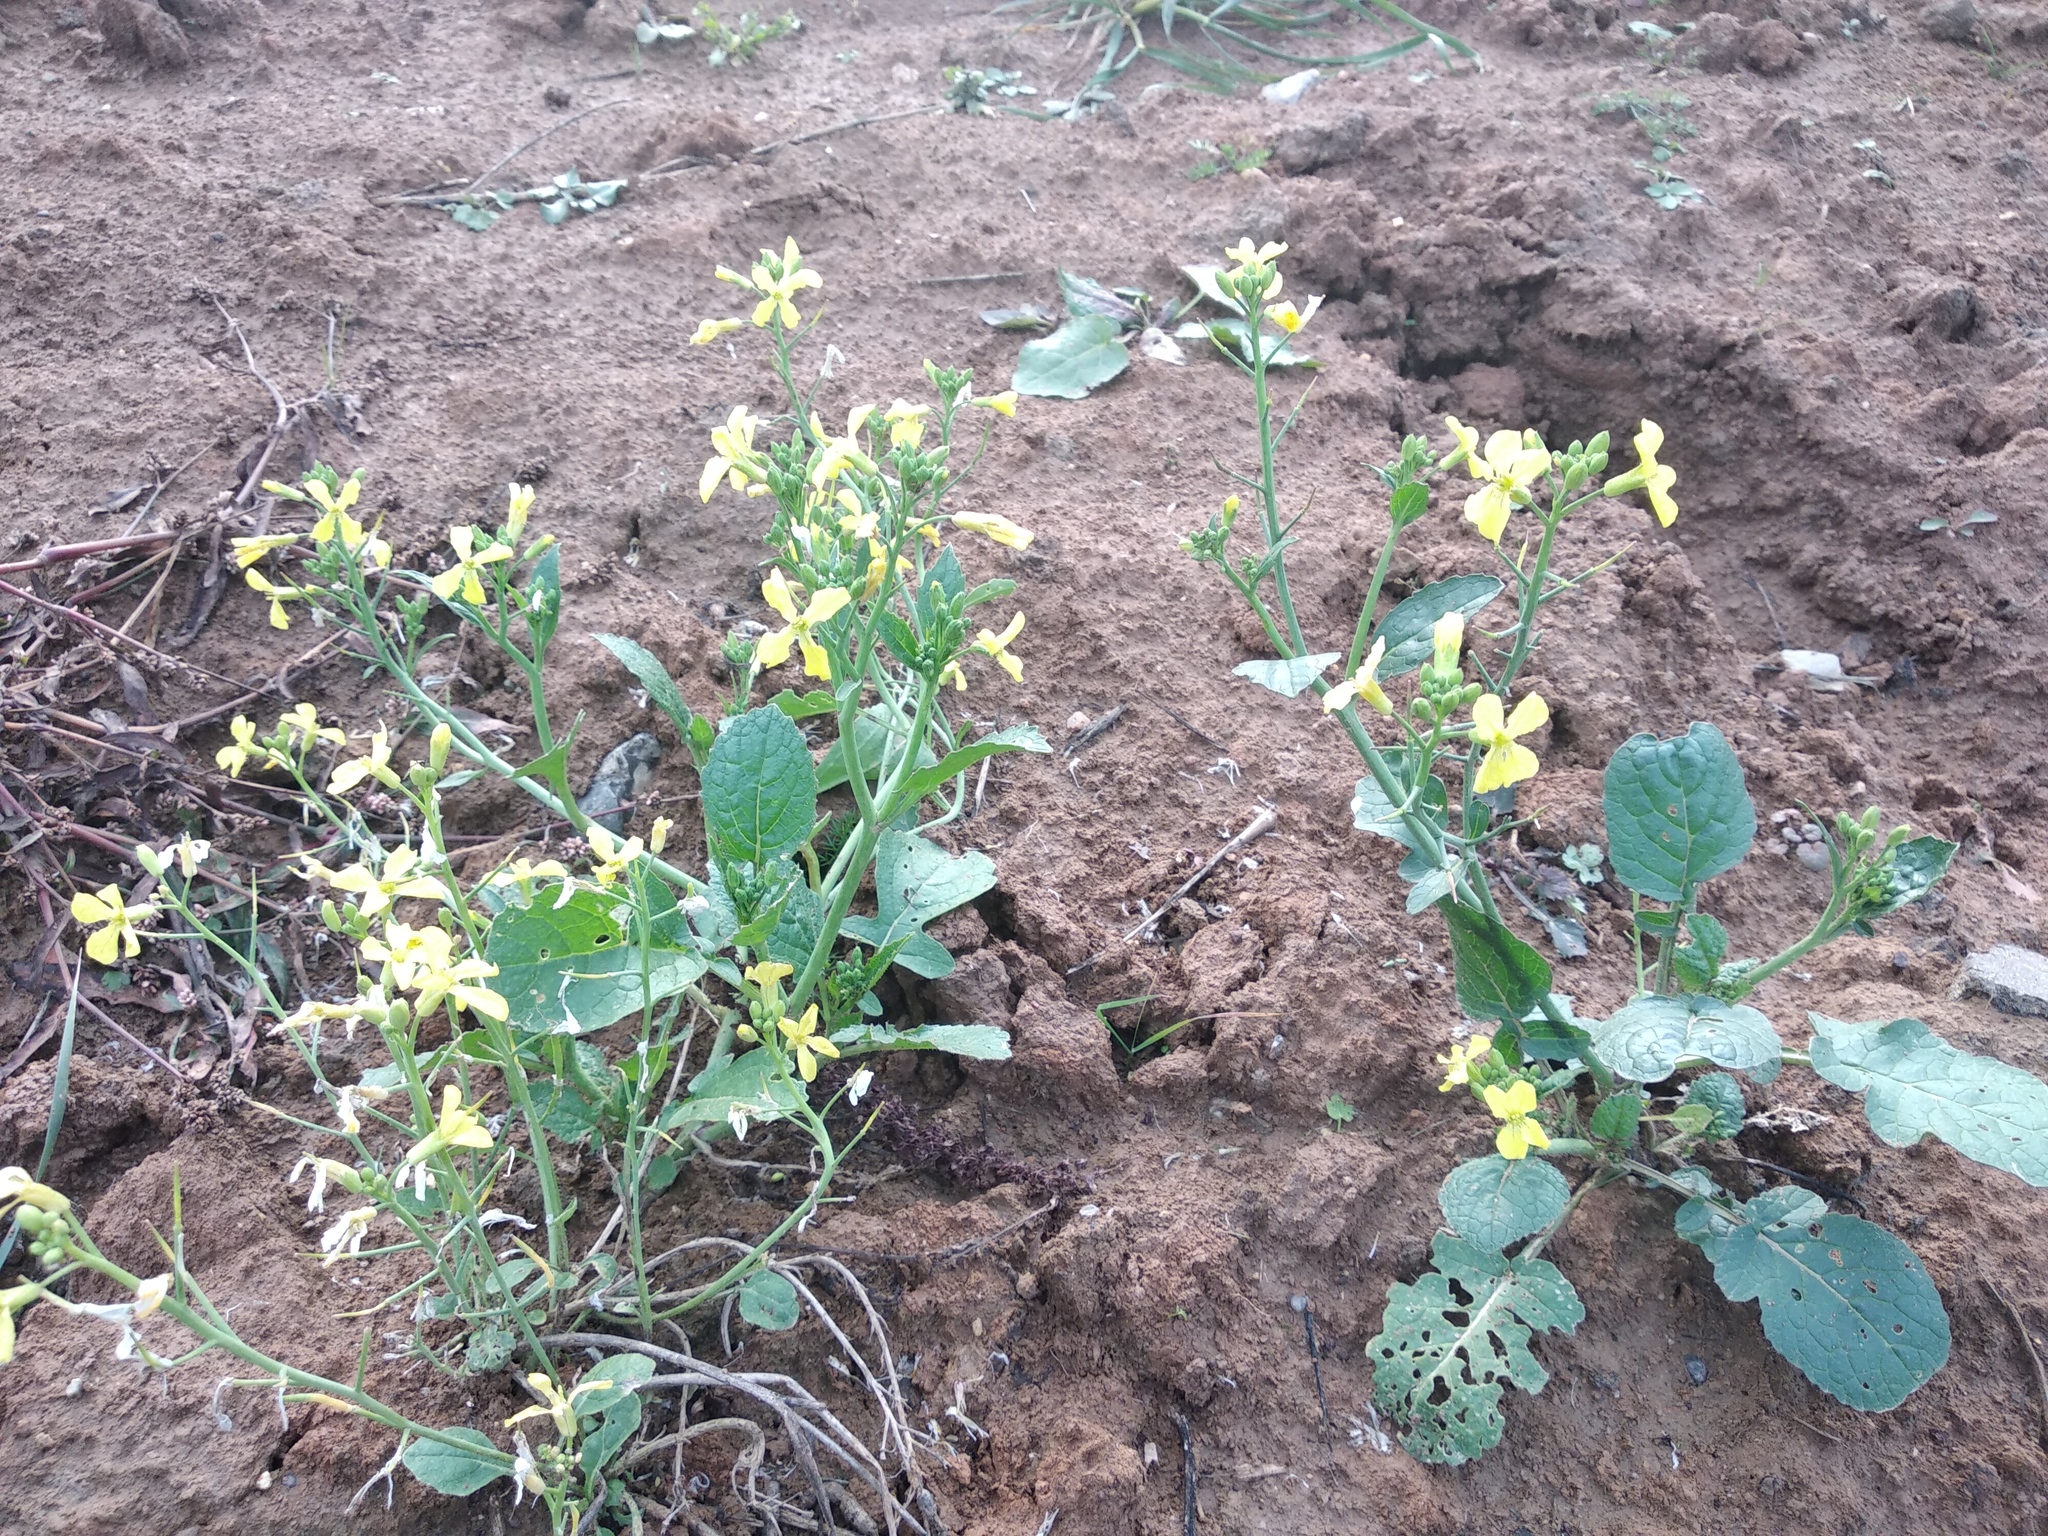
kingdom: Plantae
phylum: Tracheophyta
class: Magnoliopsida
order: Brassicales
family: Brassicaceae
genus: Raphanus
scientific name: Raphanus raphanistrum
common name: Wild radish
